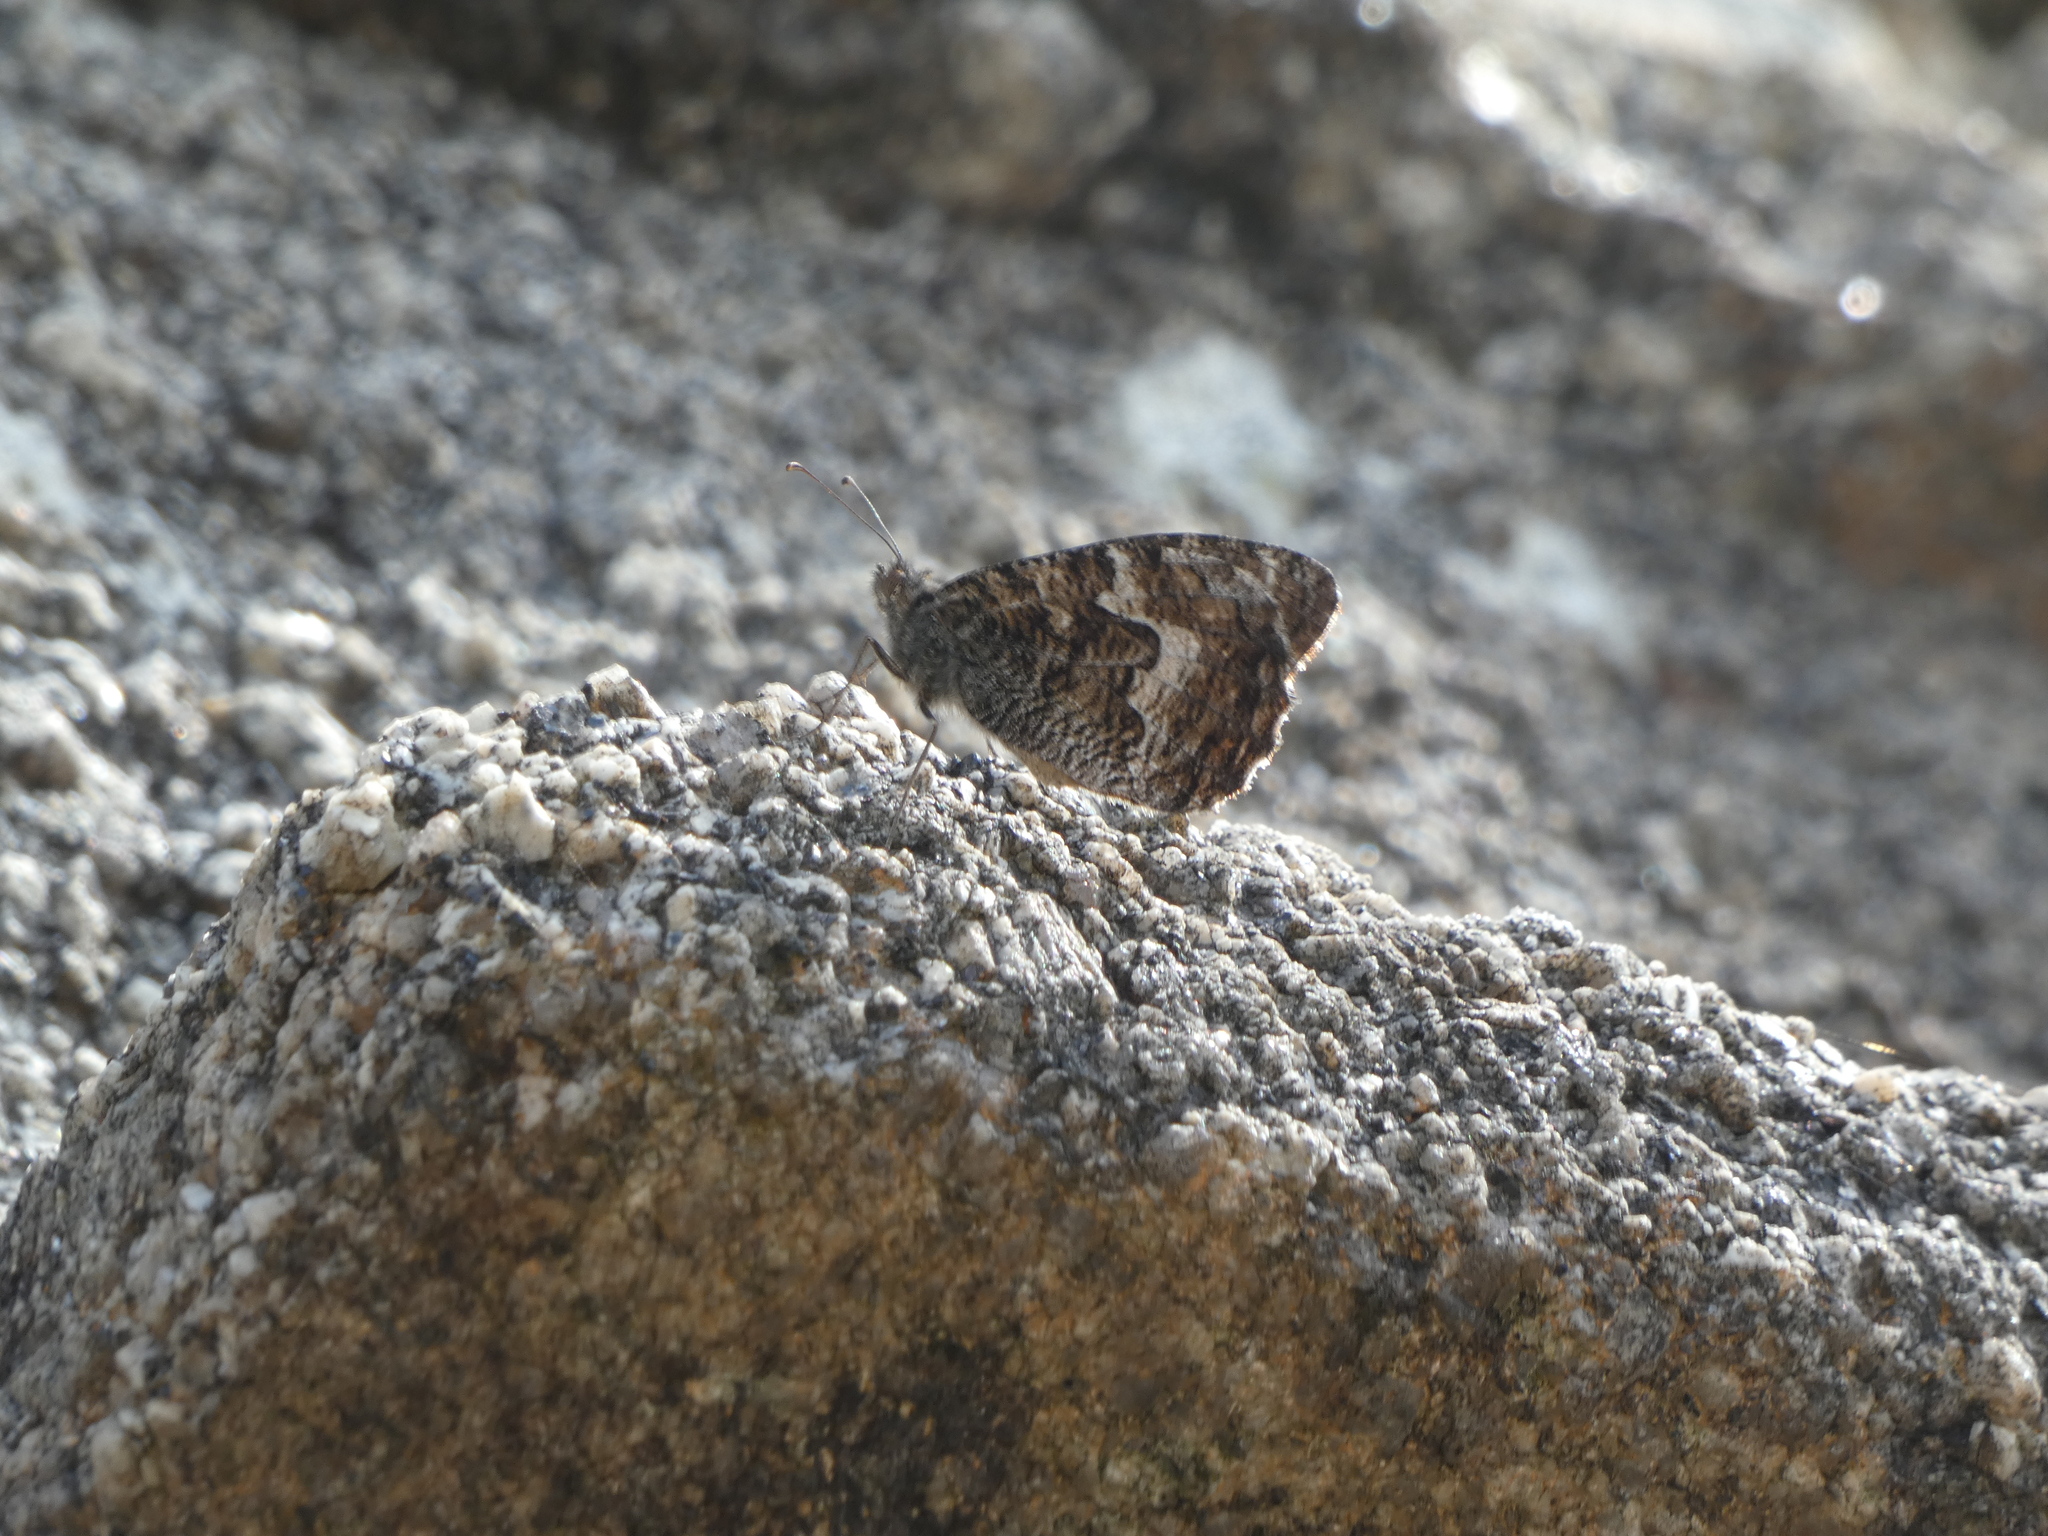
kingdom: Animalia
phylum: Arthropoda
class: Insecta
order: Lepidoptera
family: Nymphalidae
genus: Hipparchia
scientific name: Hipparchia semele
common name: Grayling
